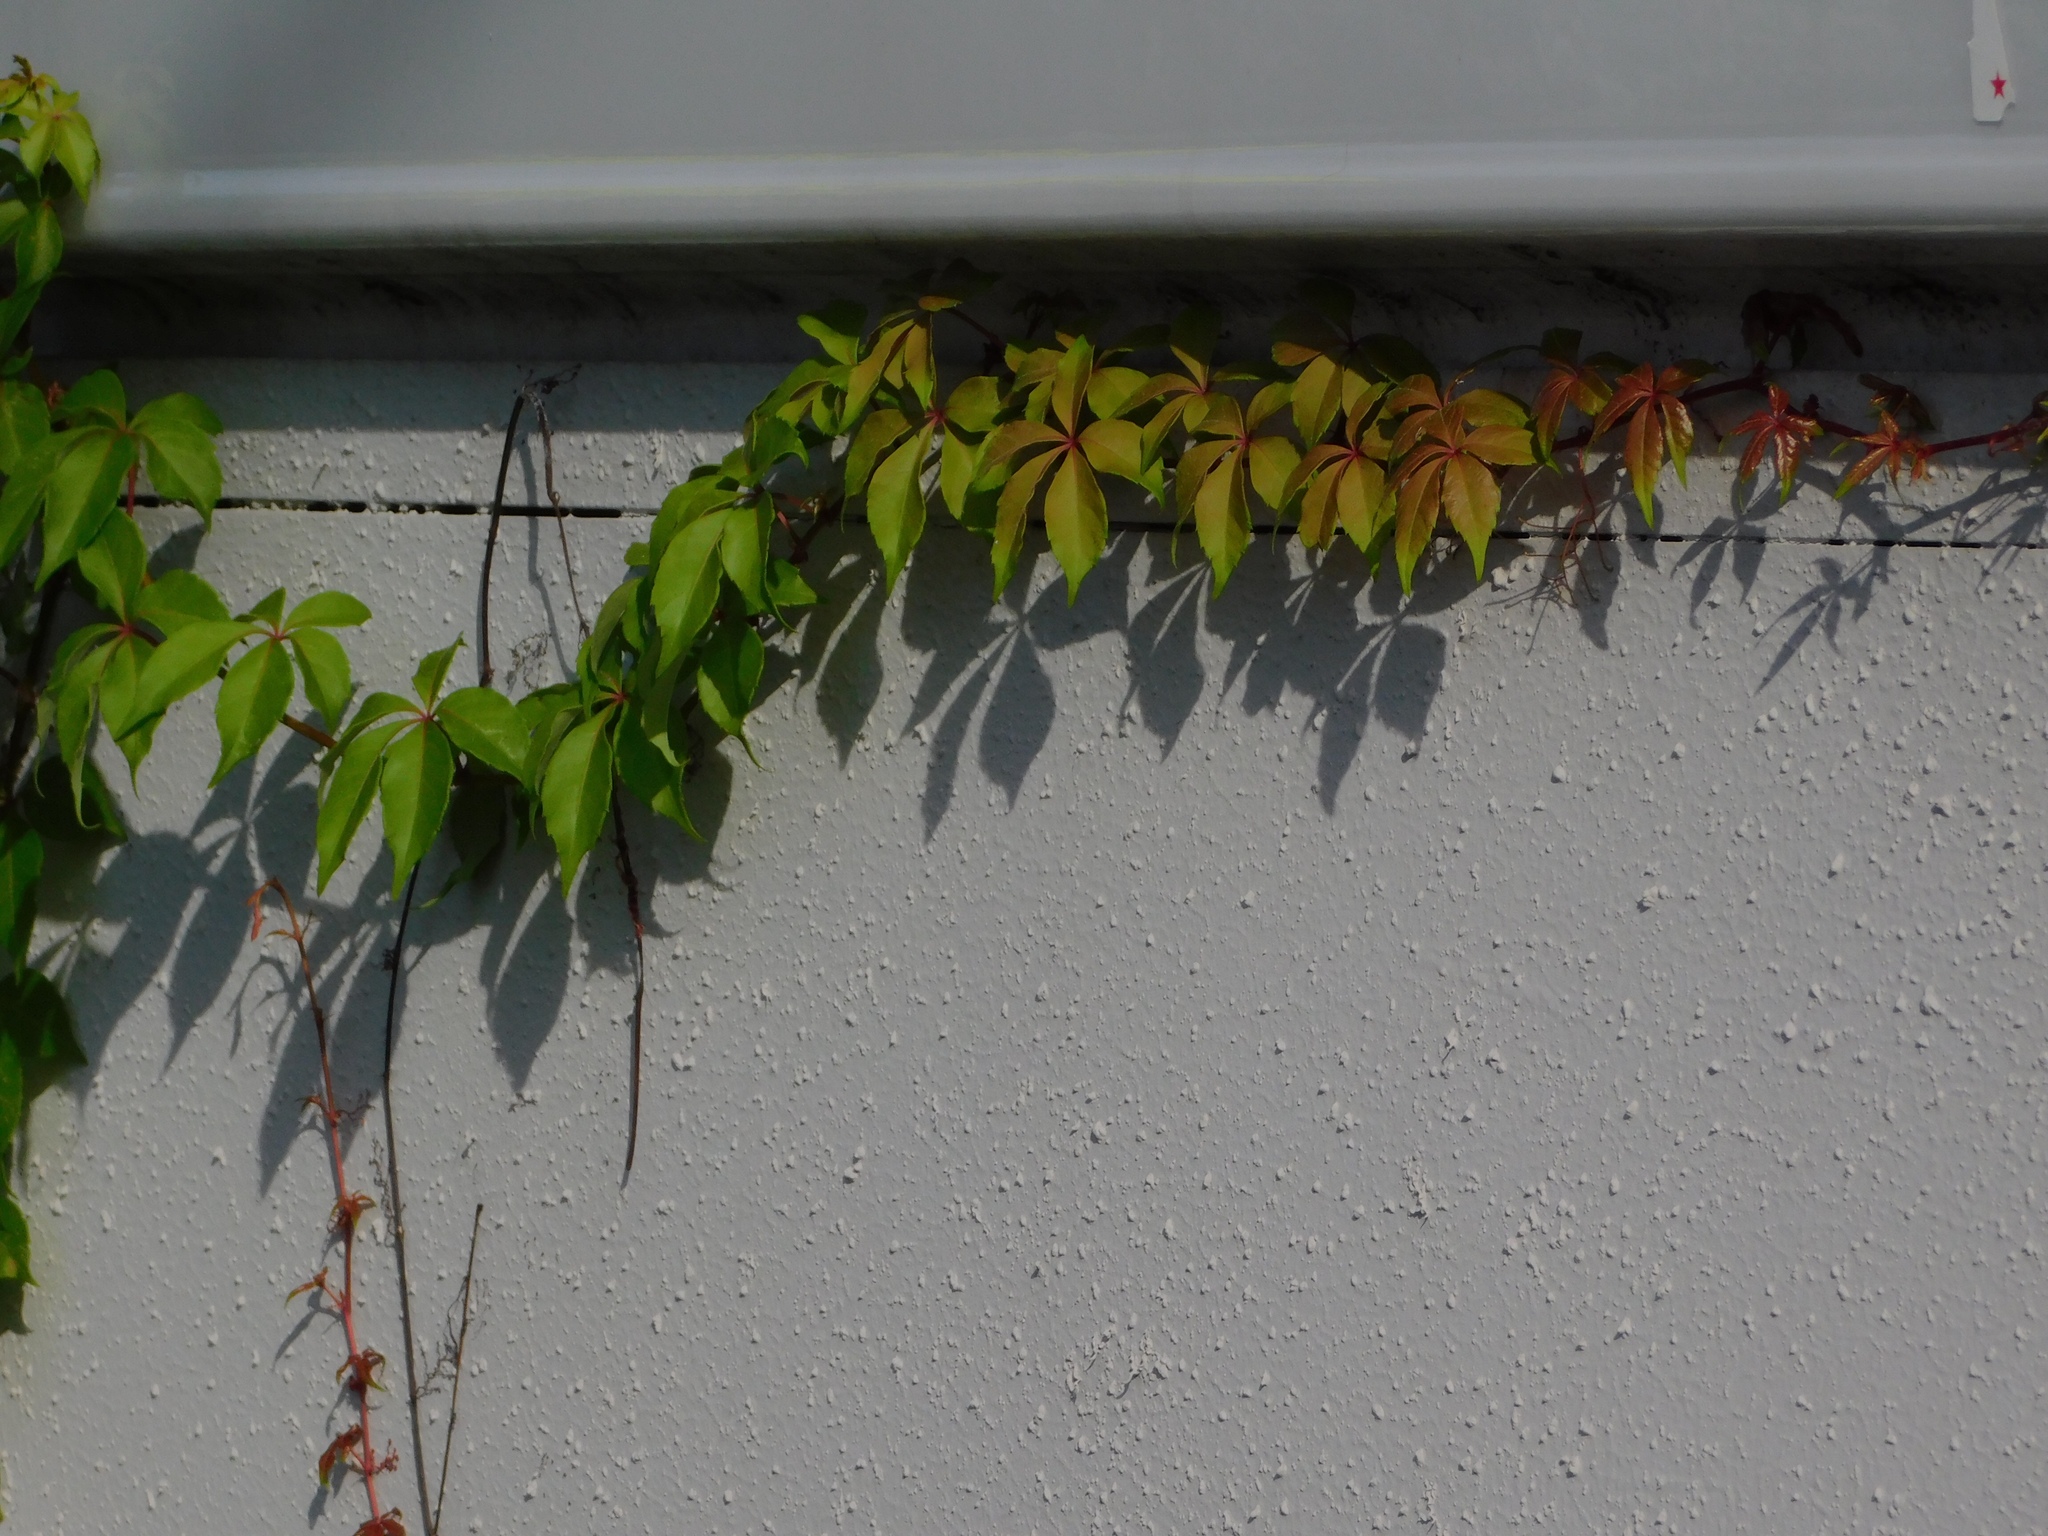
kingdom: Plantae
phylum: Tracheophyta
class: Magnoliopsida
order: Vitales
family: Vitaceae
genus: Parthenocissus
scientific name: Parthenocissus quinquefolia
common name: Virginia-creeper
